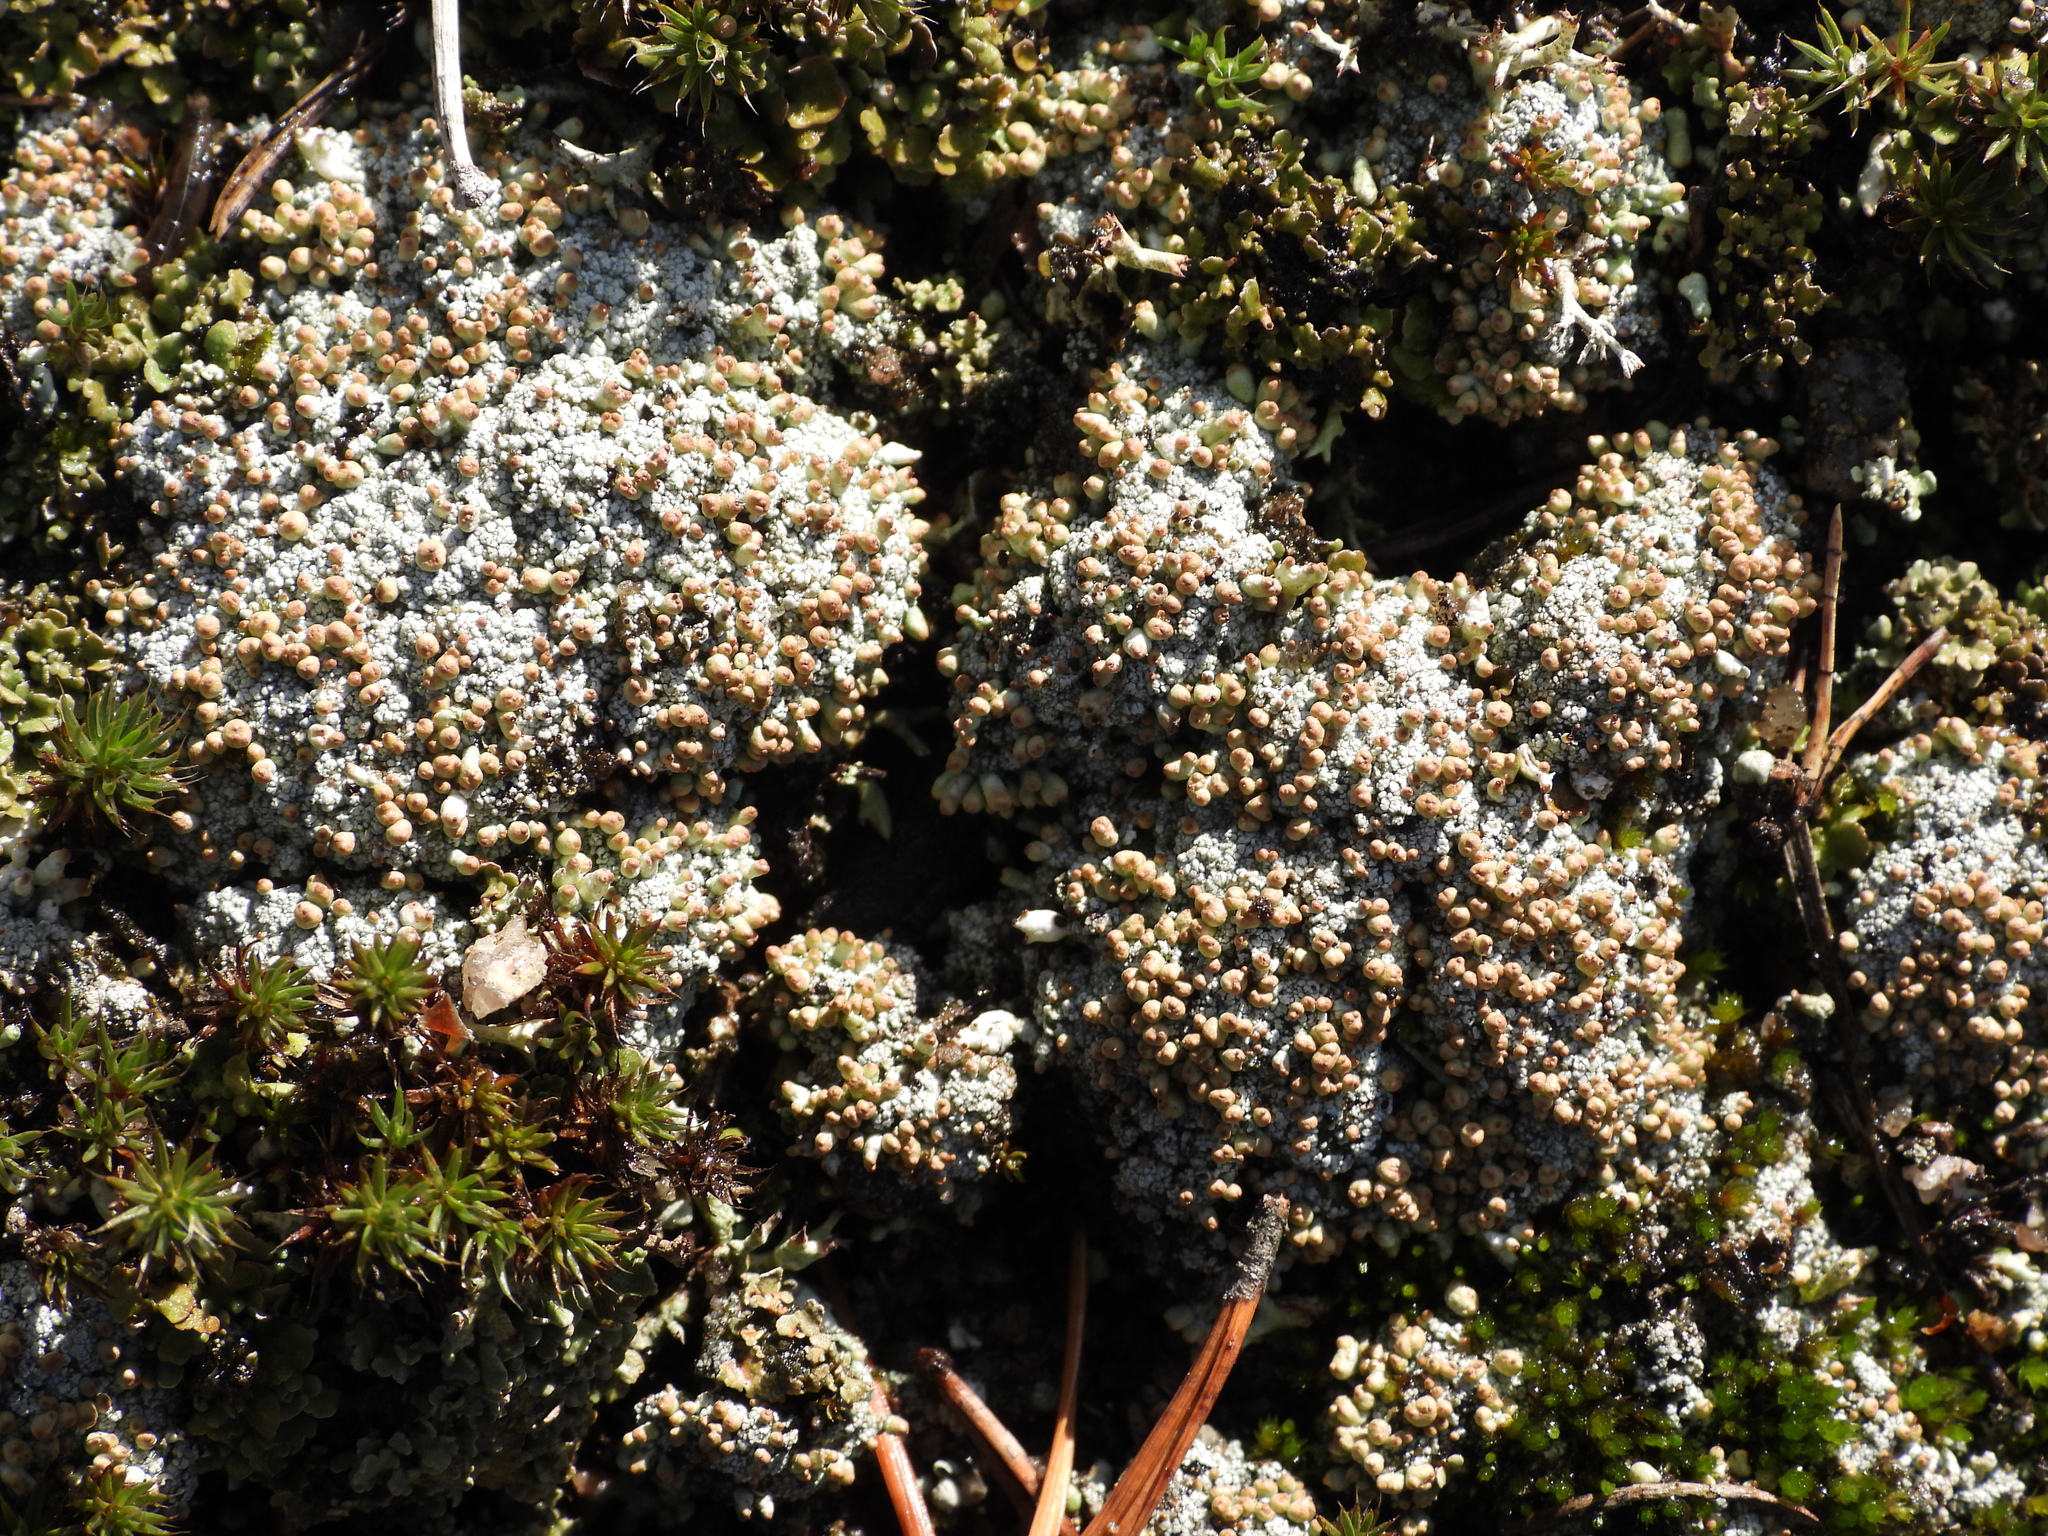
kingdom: Fungi
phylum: Ascomycota
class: Lecanoromycetes
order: Lecanorales
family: Cladoniaceae
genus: Pycnothelia
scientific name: Pycnothelia papillaria
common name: Nipple lichen
